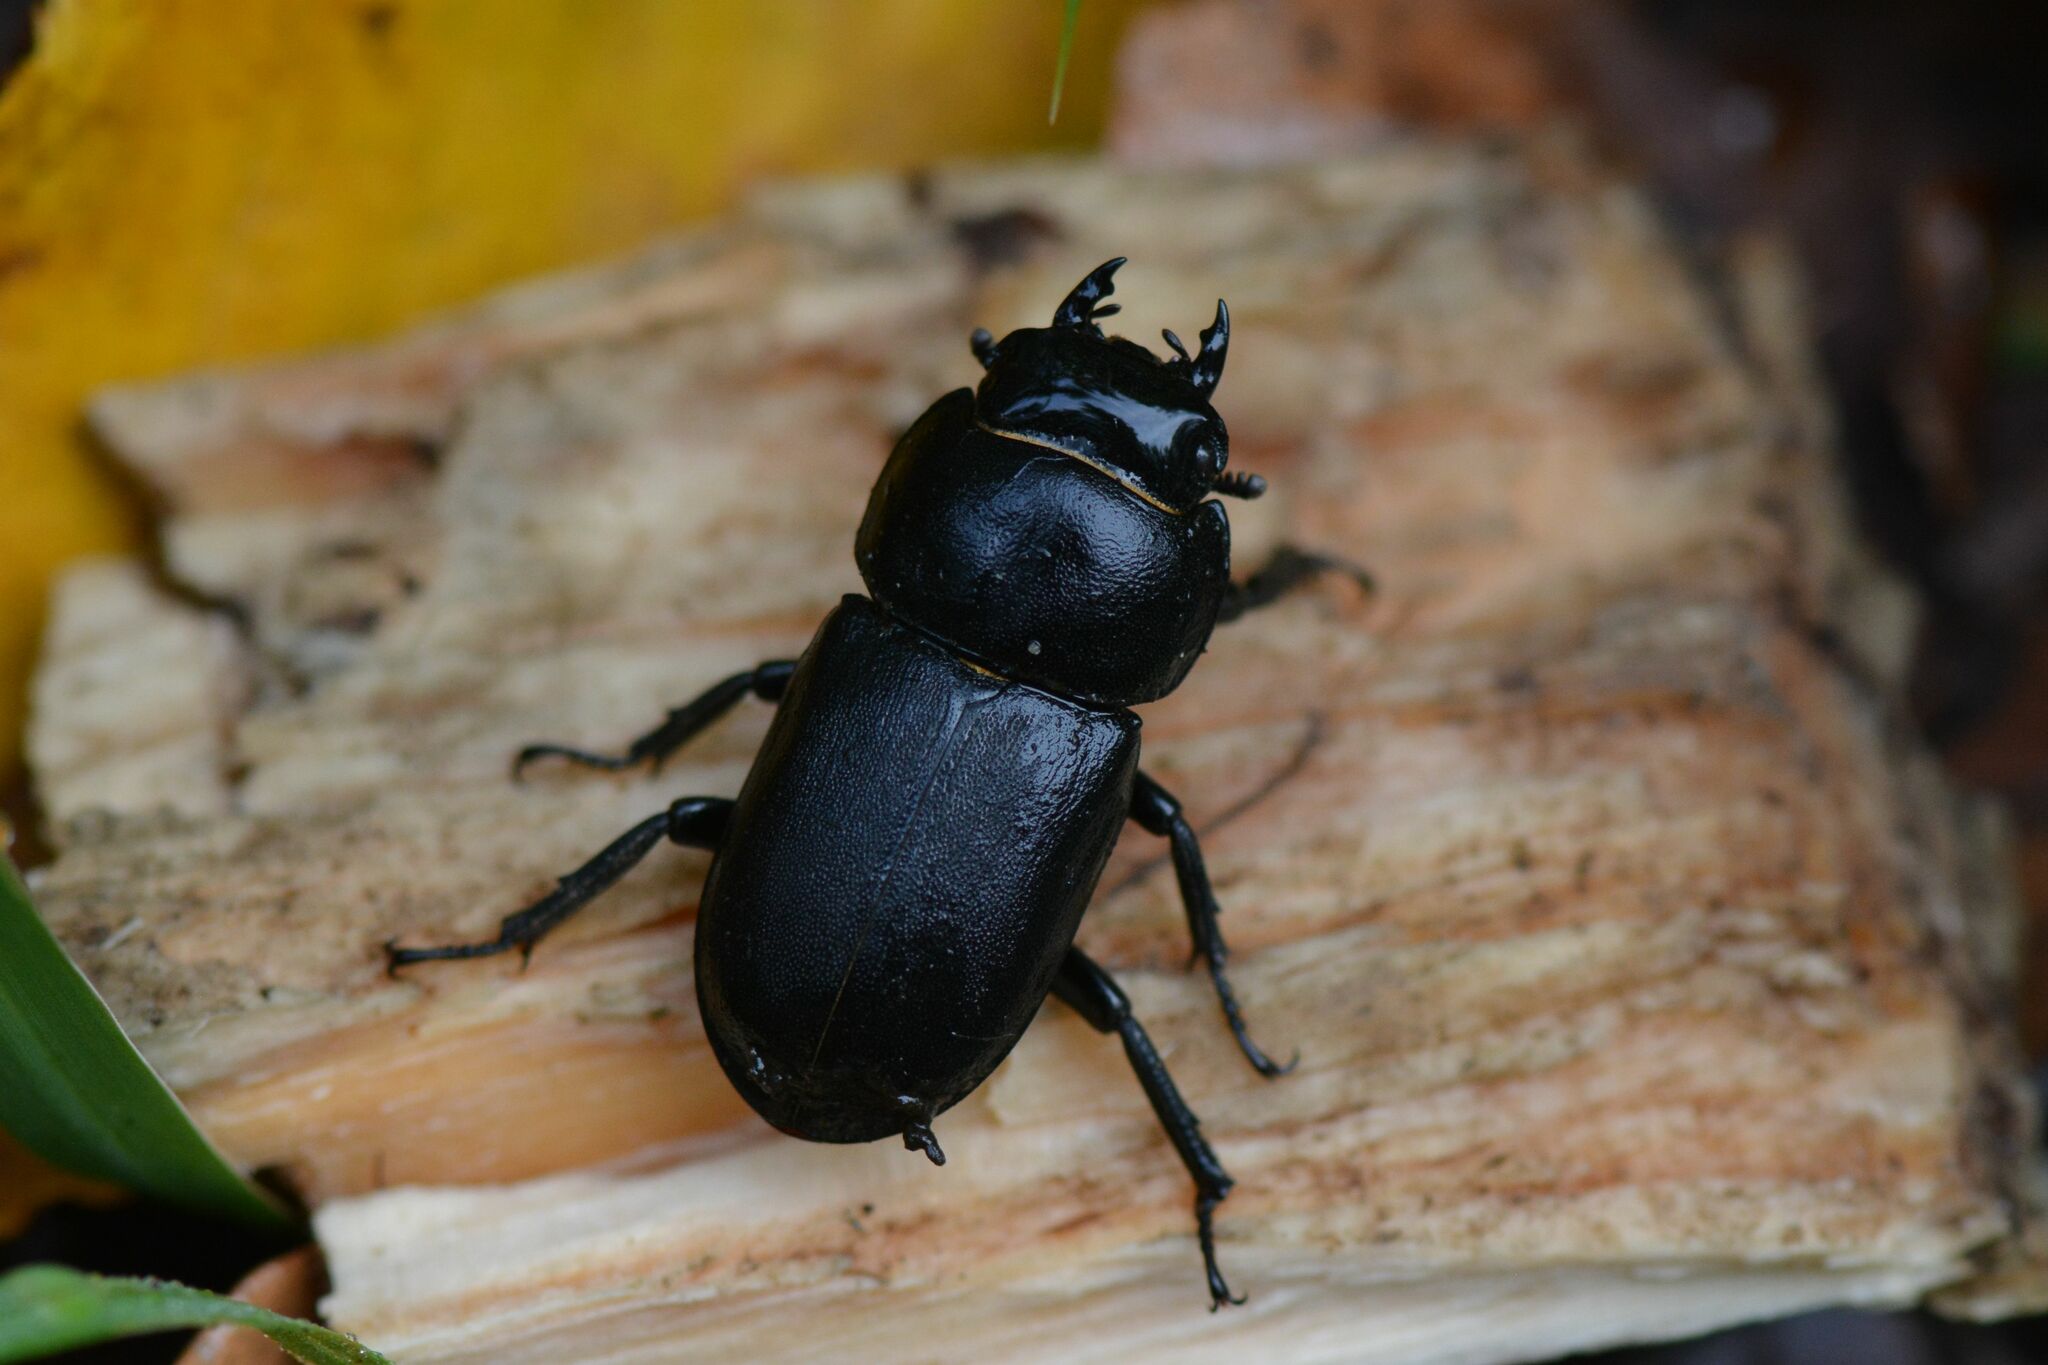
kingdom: Animalia
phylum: Arthropoda
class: Insecta
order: Coleoptera
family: Lucanidae
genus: Dorcus
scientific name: Dorcus parallelipipedus
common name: Lesser stag beetle
